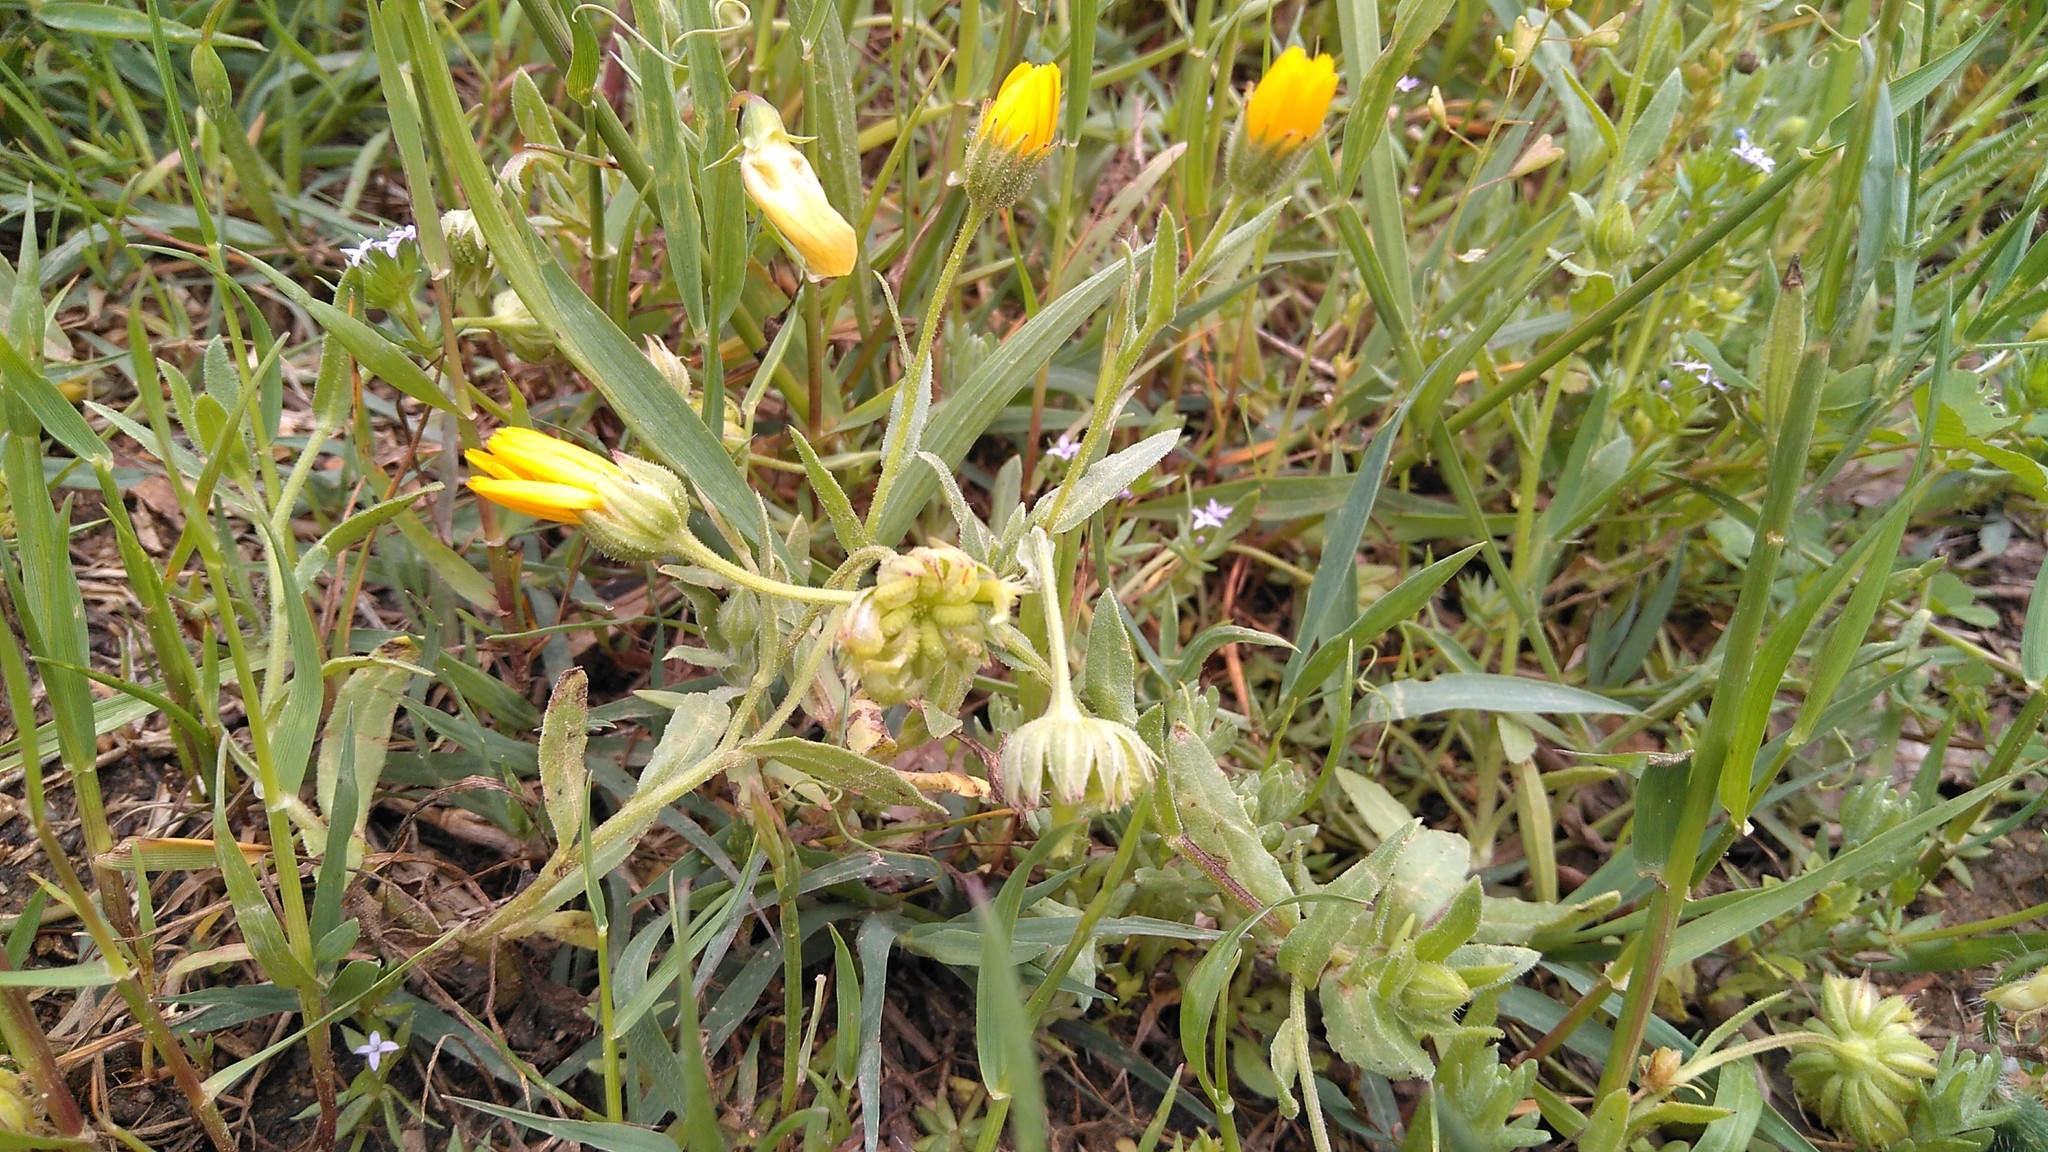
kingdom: Plantae
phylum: Tracheophyta
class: Magnoliopsida
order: Asterales
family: Asteraceae
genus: Calendula
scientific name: Calendula arvensis
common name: Field marigold
